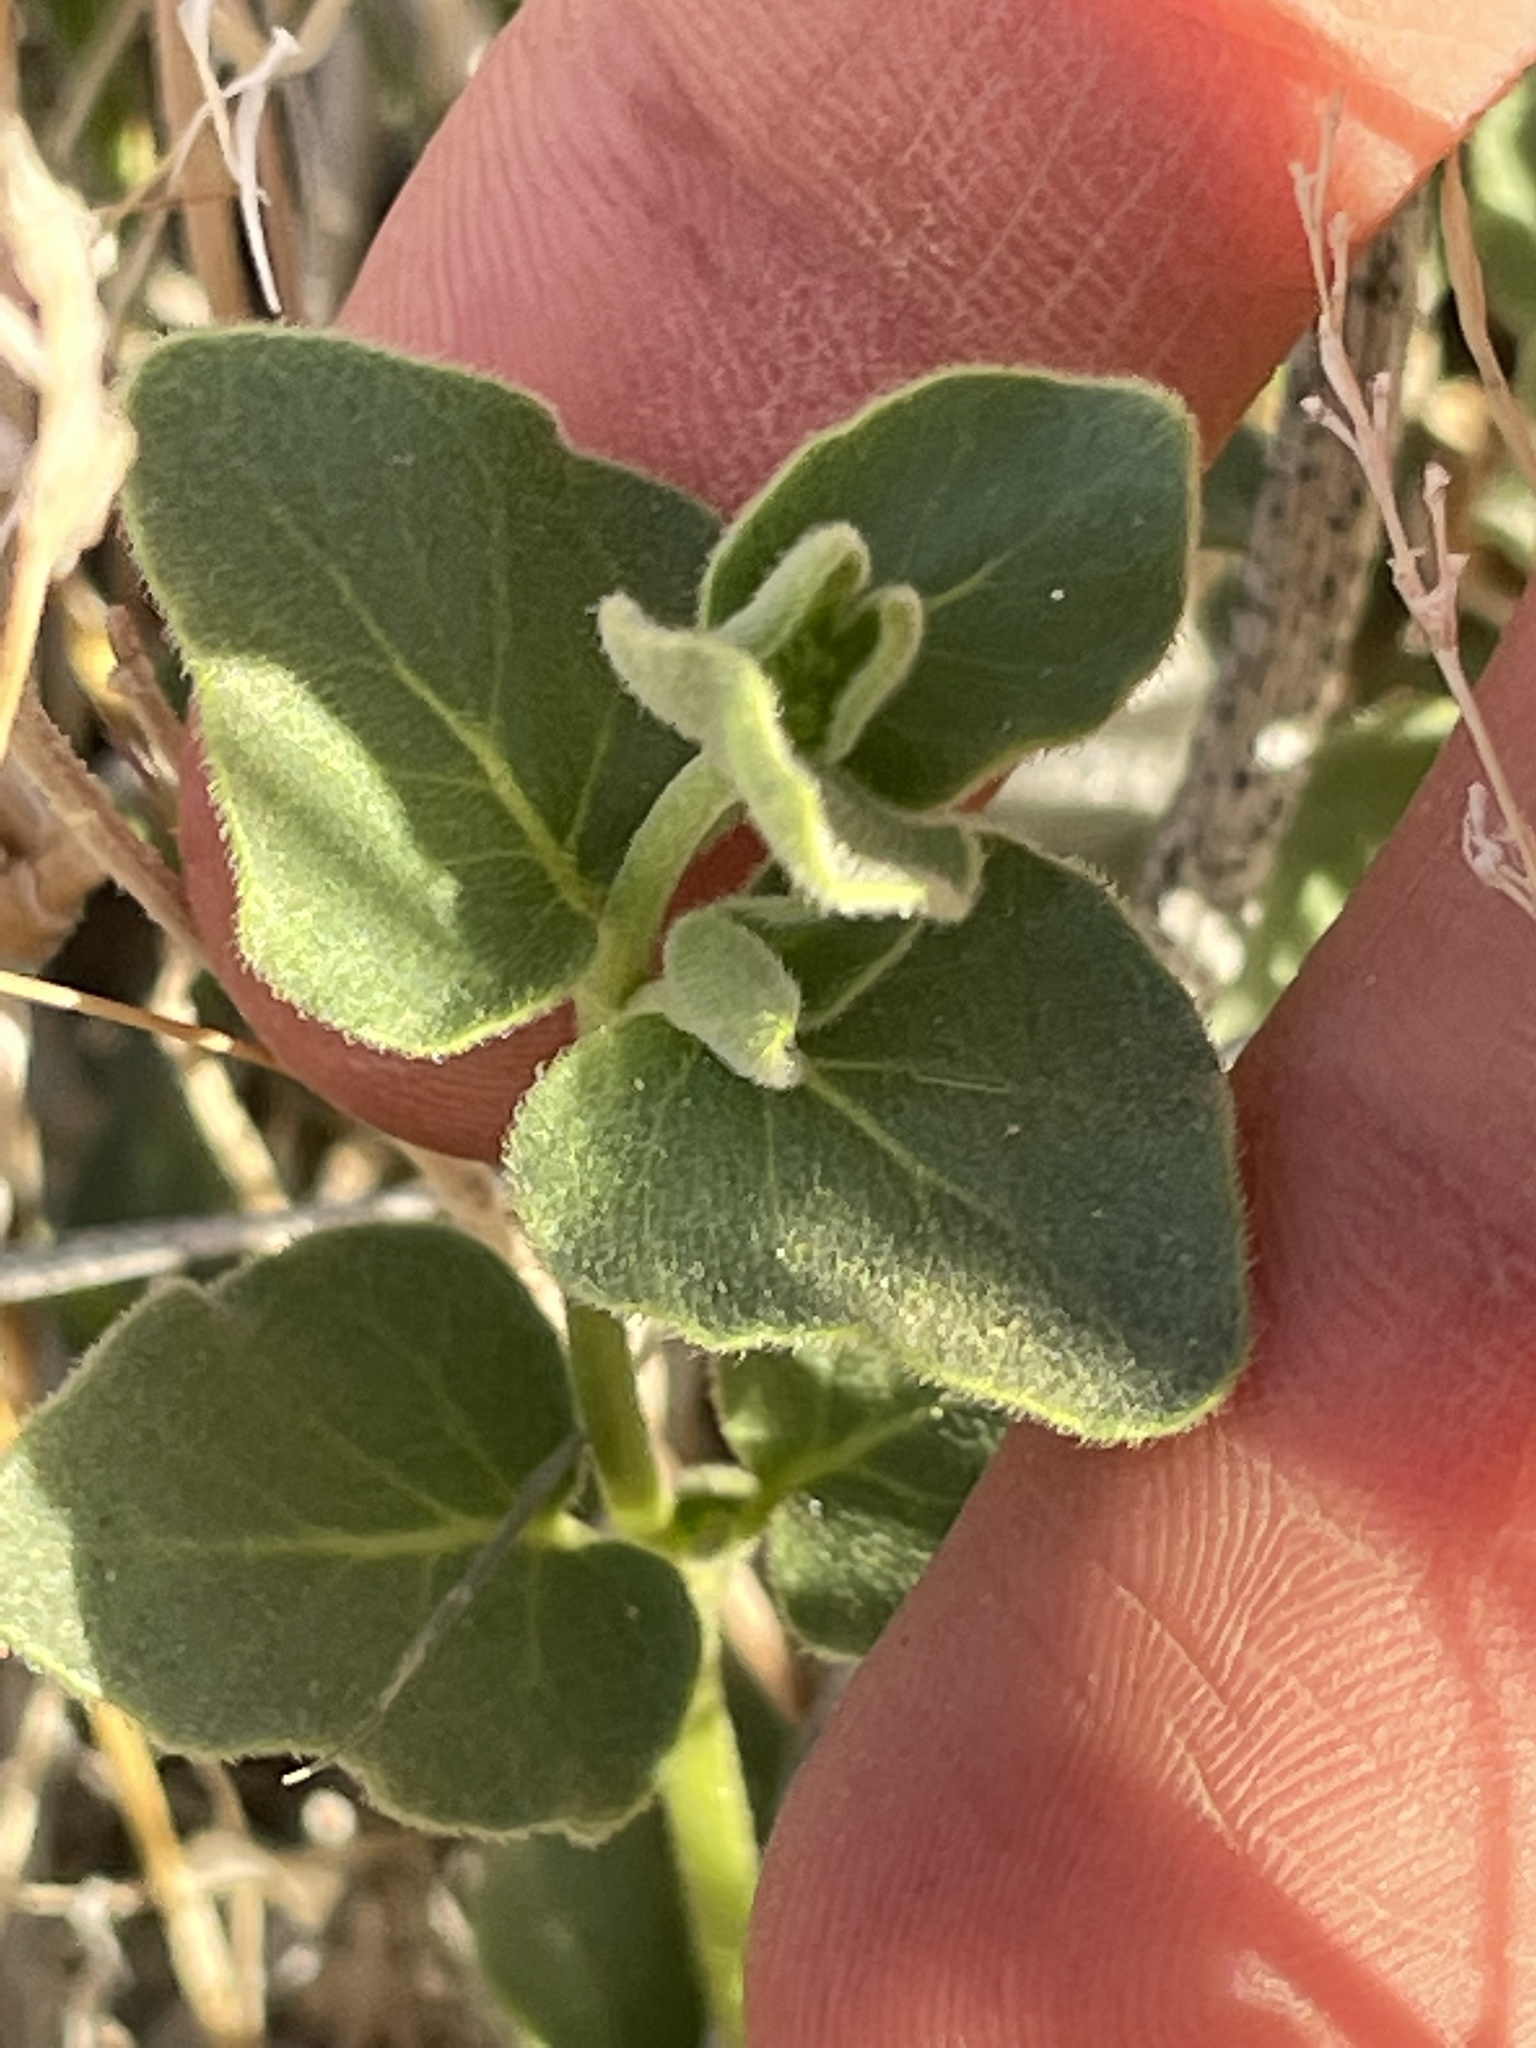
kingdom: Plantae
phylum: Tracheophyta
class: Magnoliopsida
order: Caryophyllales
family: Nyctaginaceae
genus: Mirabilis
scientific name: Mirabilis laevis
